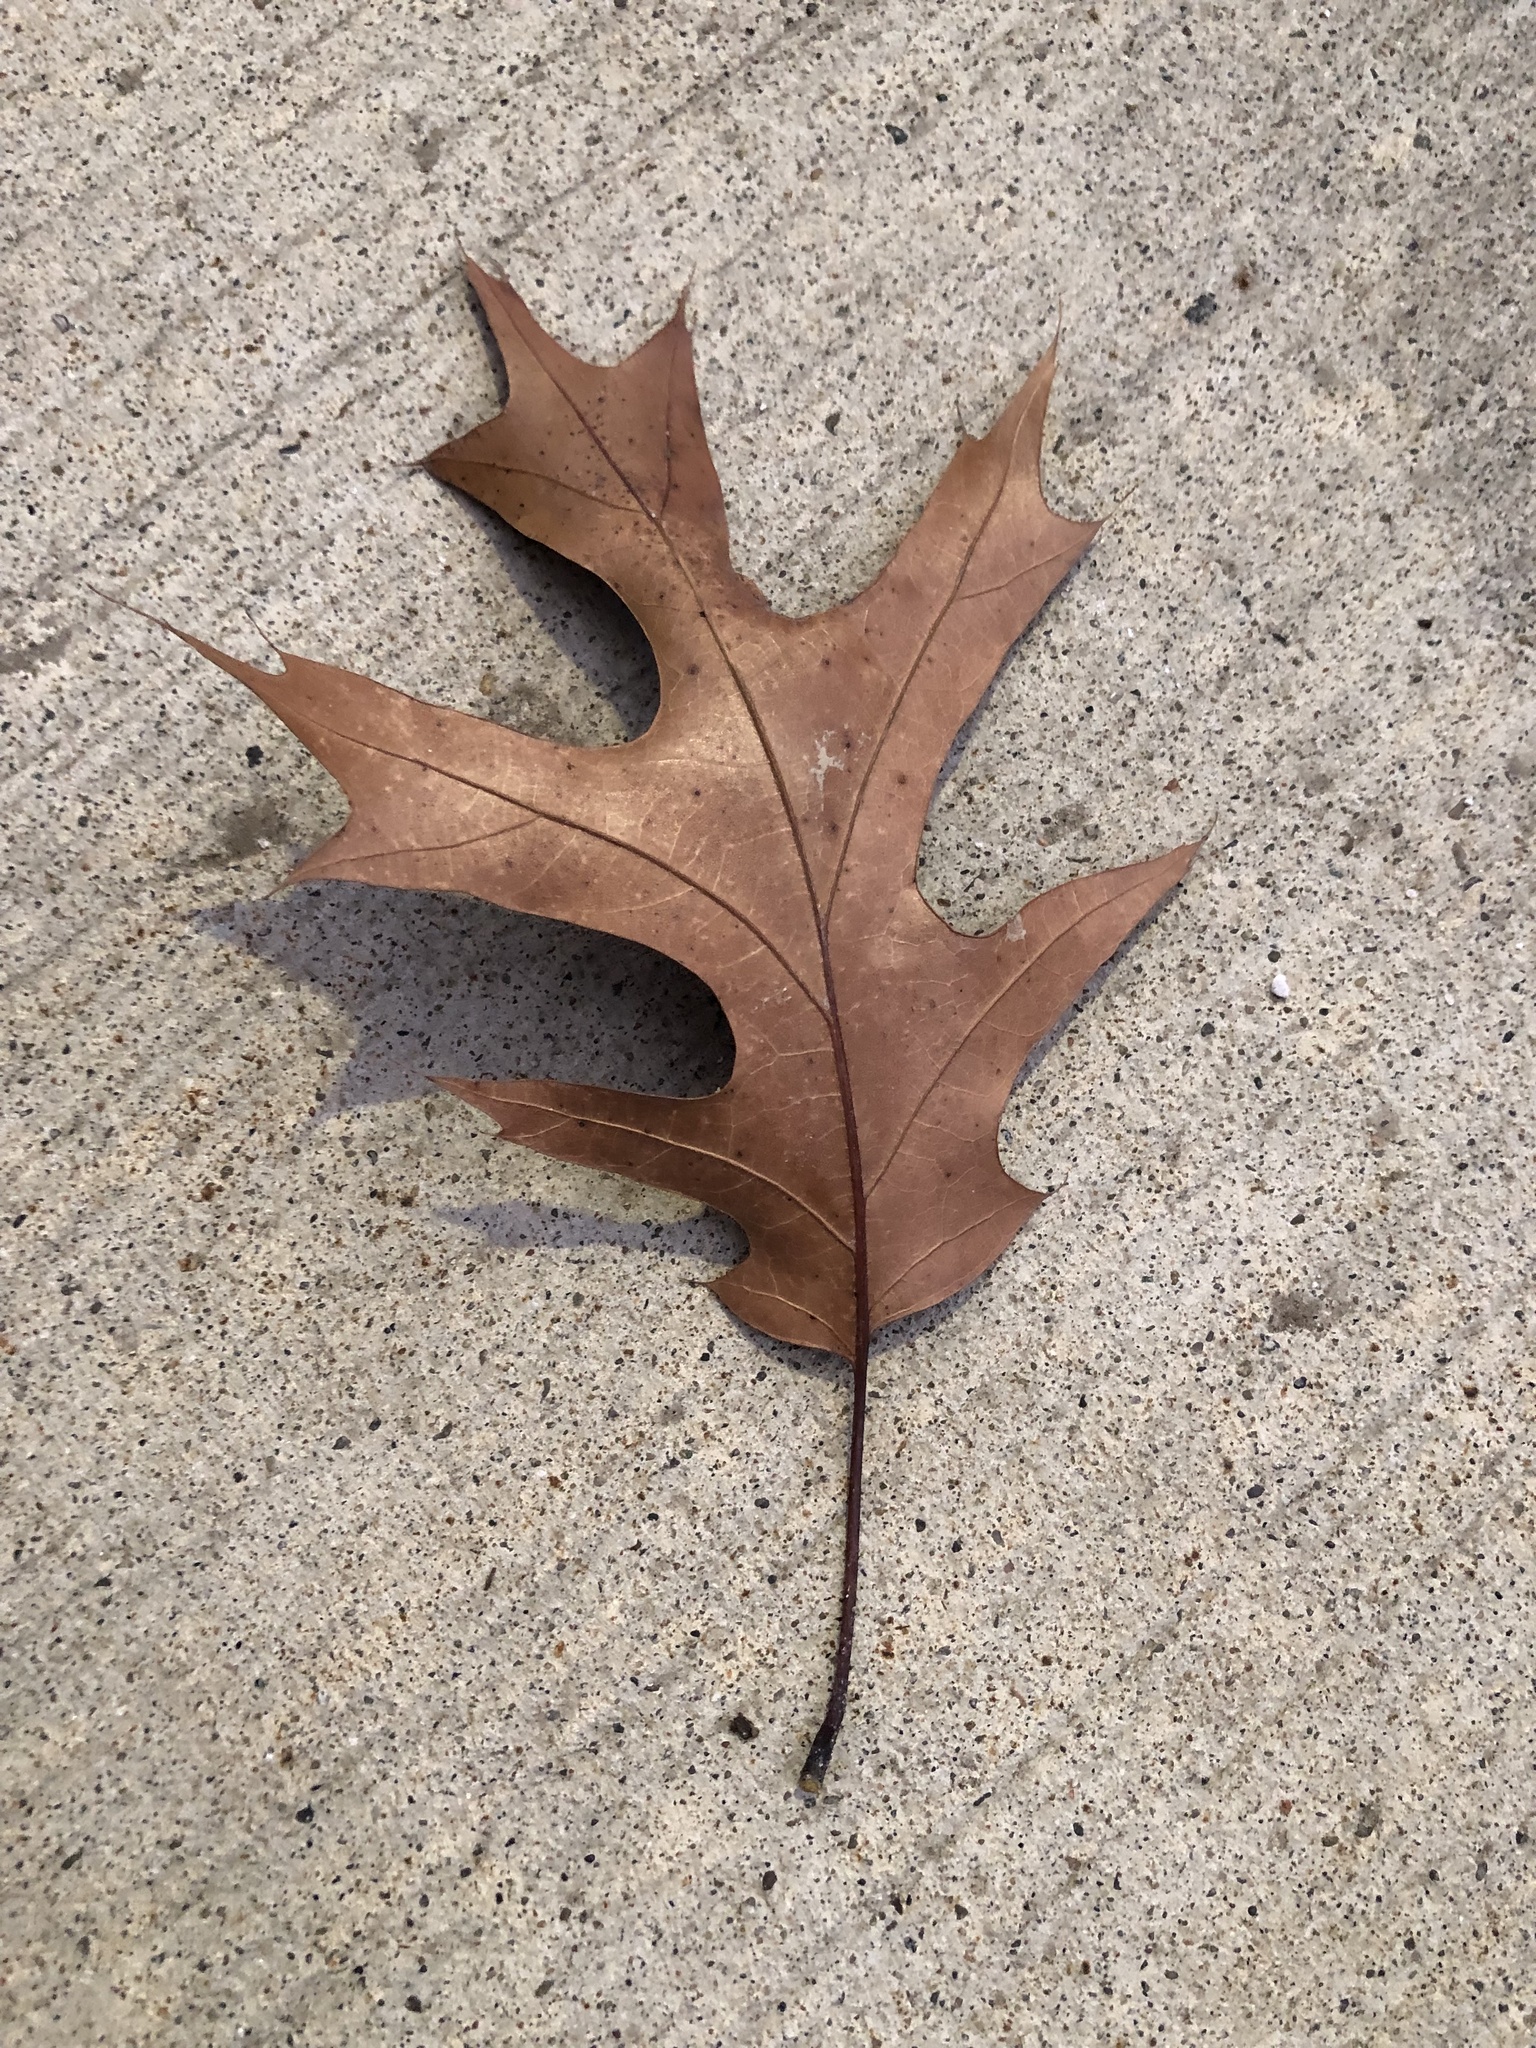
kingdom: Plantae
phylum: Tracheophyta
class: Magnoliopsida
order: Fagales
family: Fagaceae
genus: Quercus
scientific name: Quercus rubra
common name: Red oak
